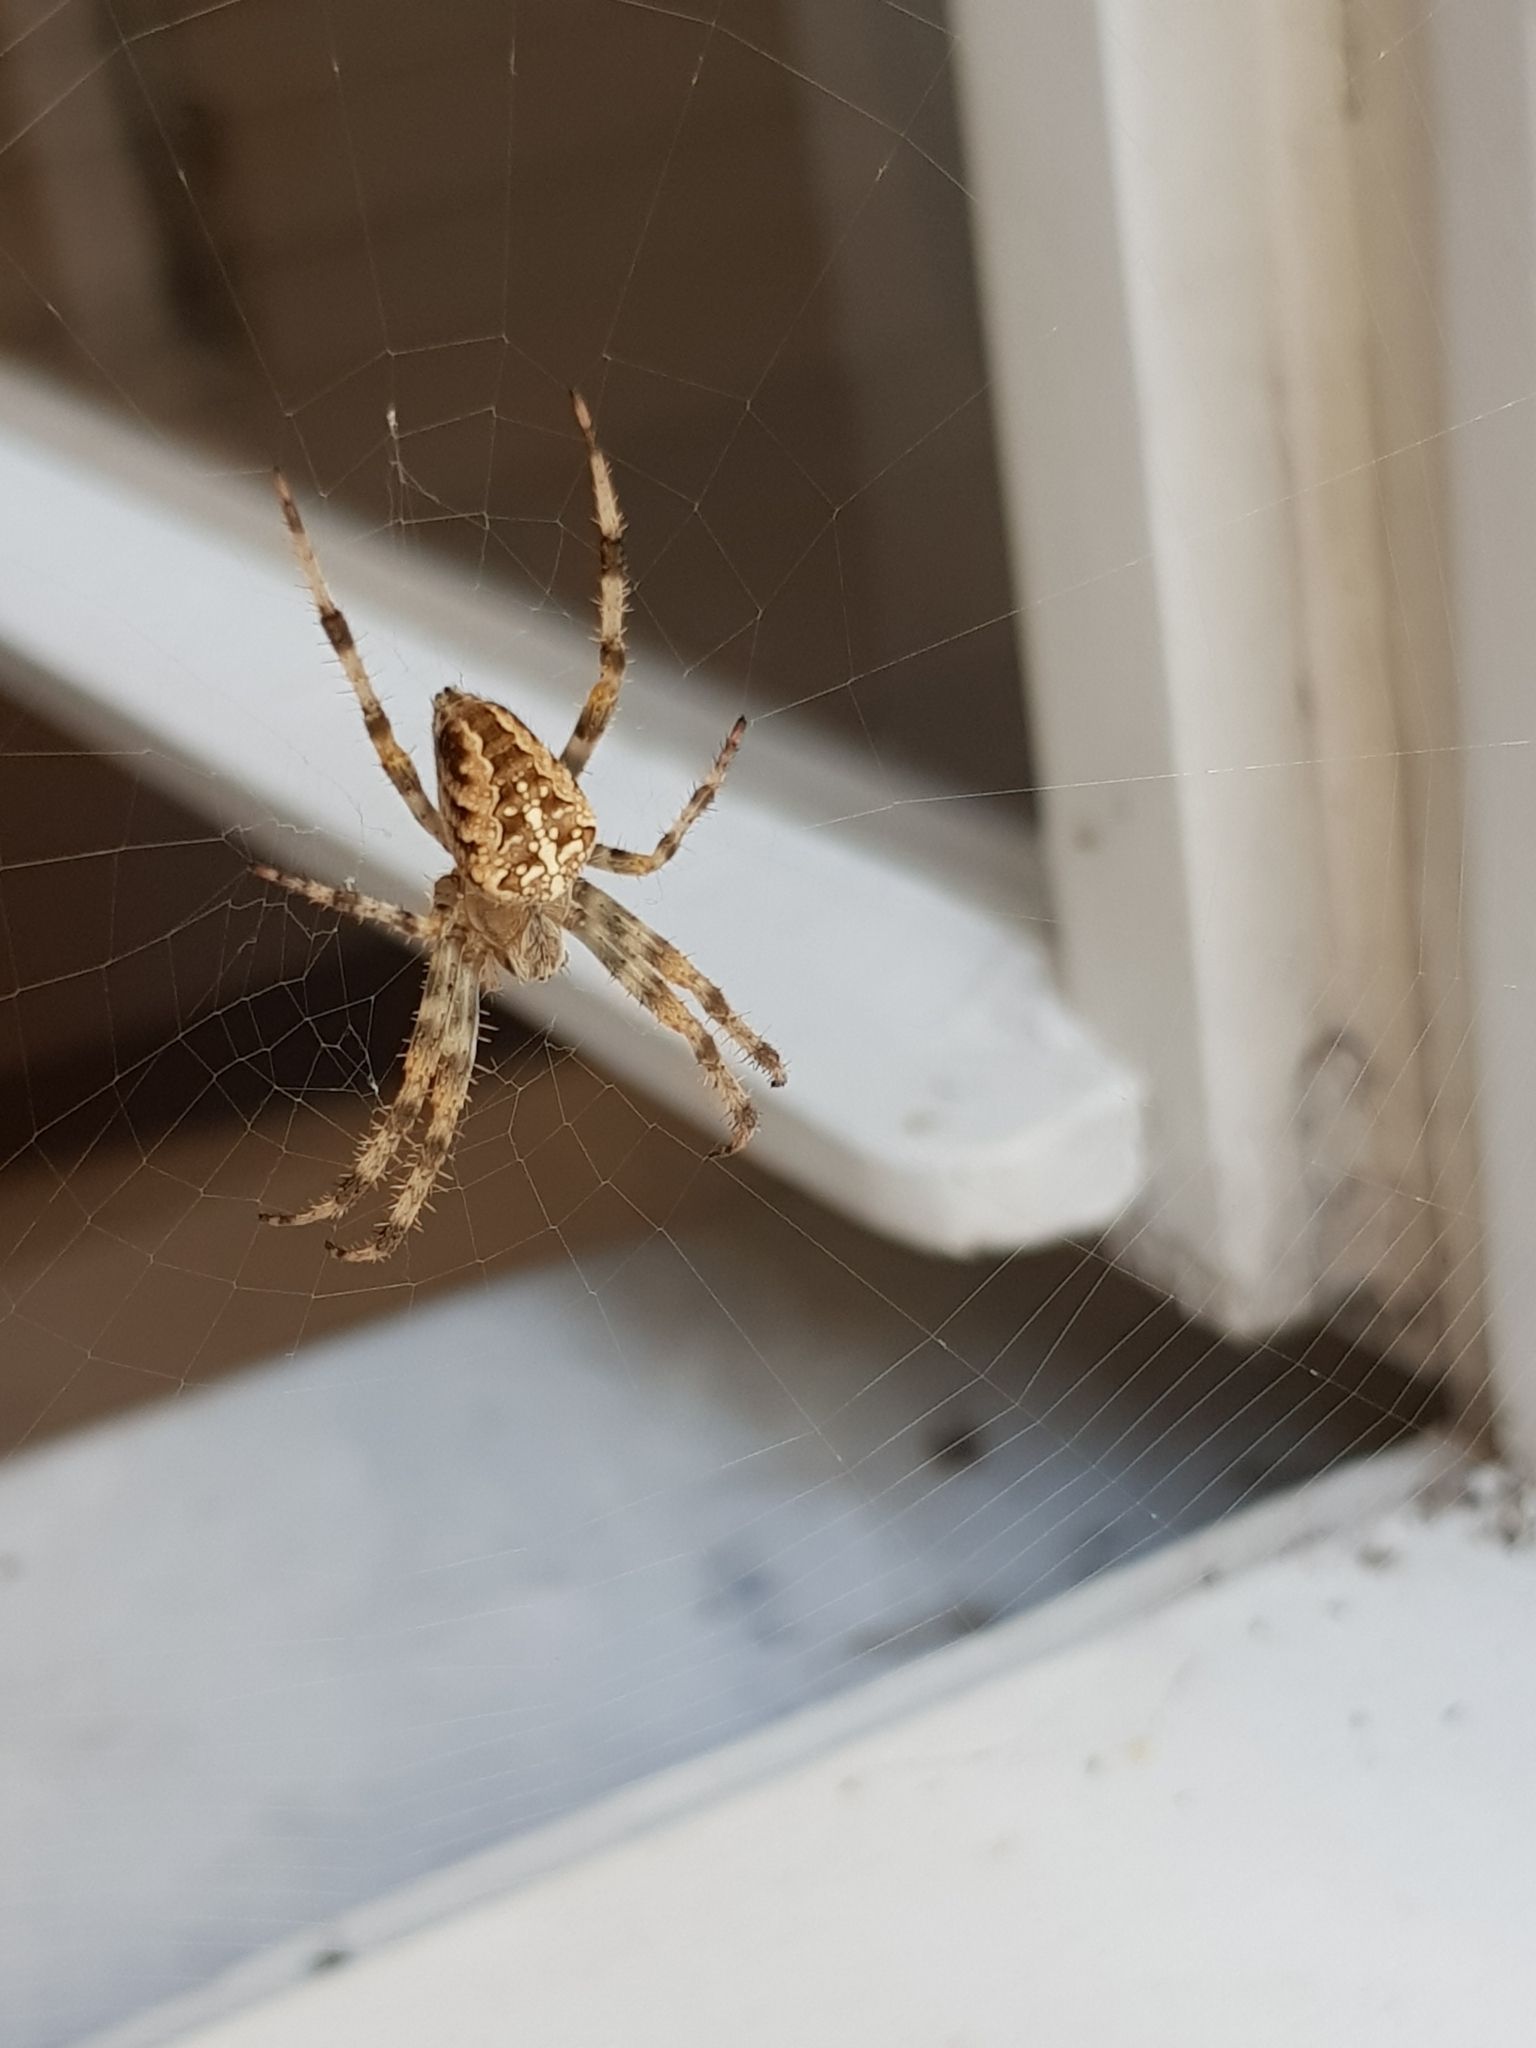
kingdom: Animalia
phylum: Arthropoda
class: Arachnida
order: Araneae
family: Araneidae
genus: Araneus
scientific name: Araneus diadematus
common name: Cross orbweaver
